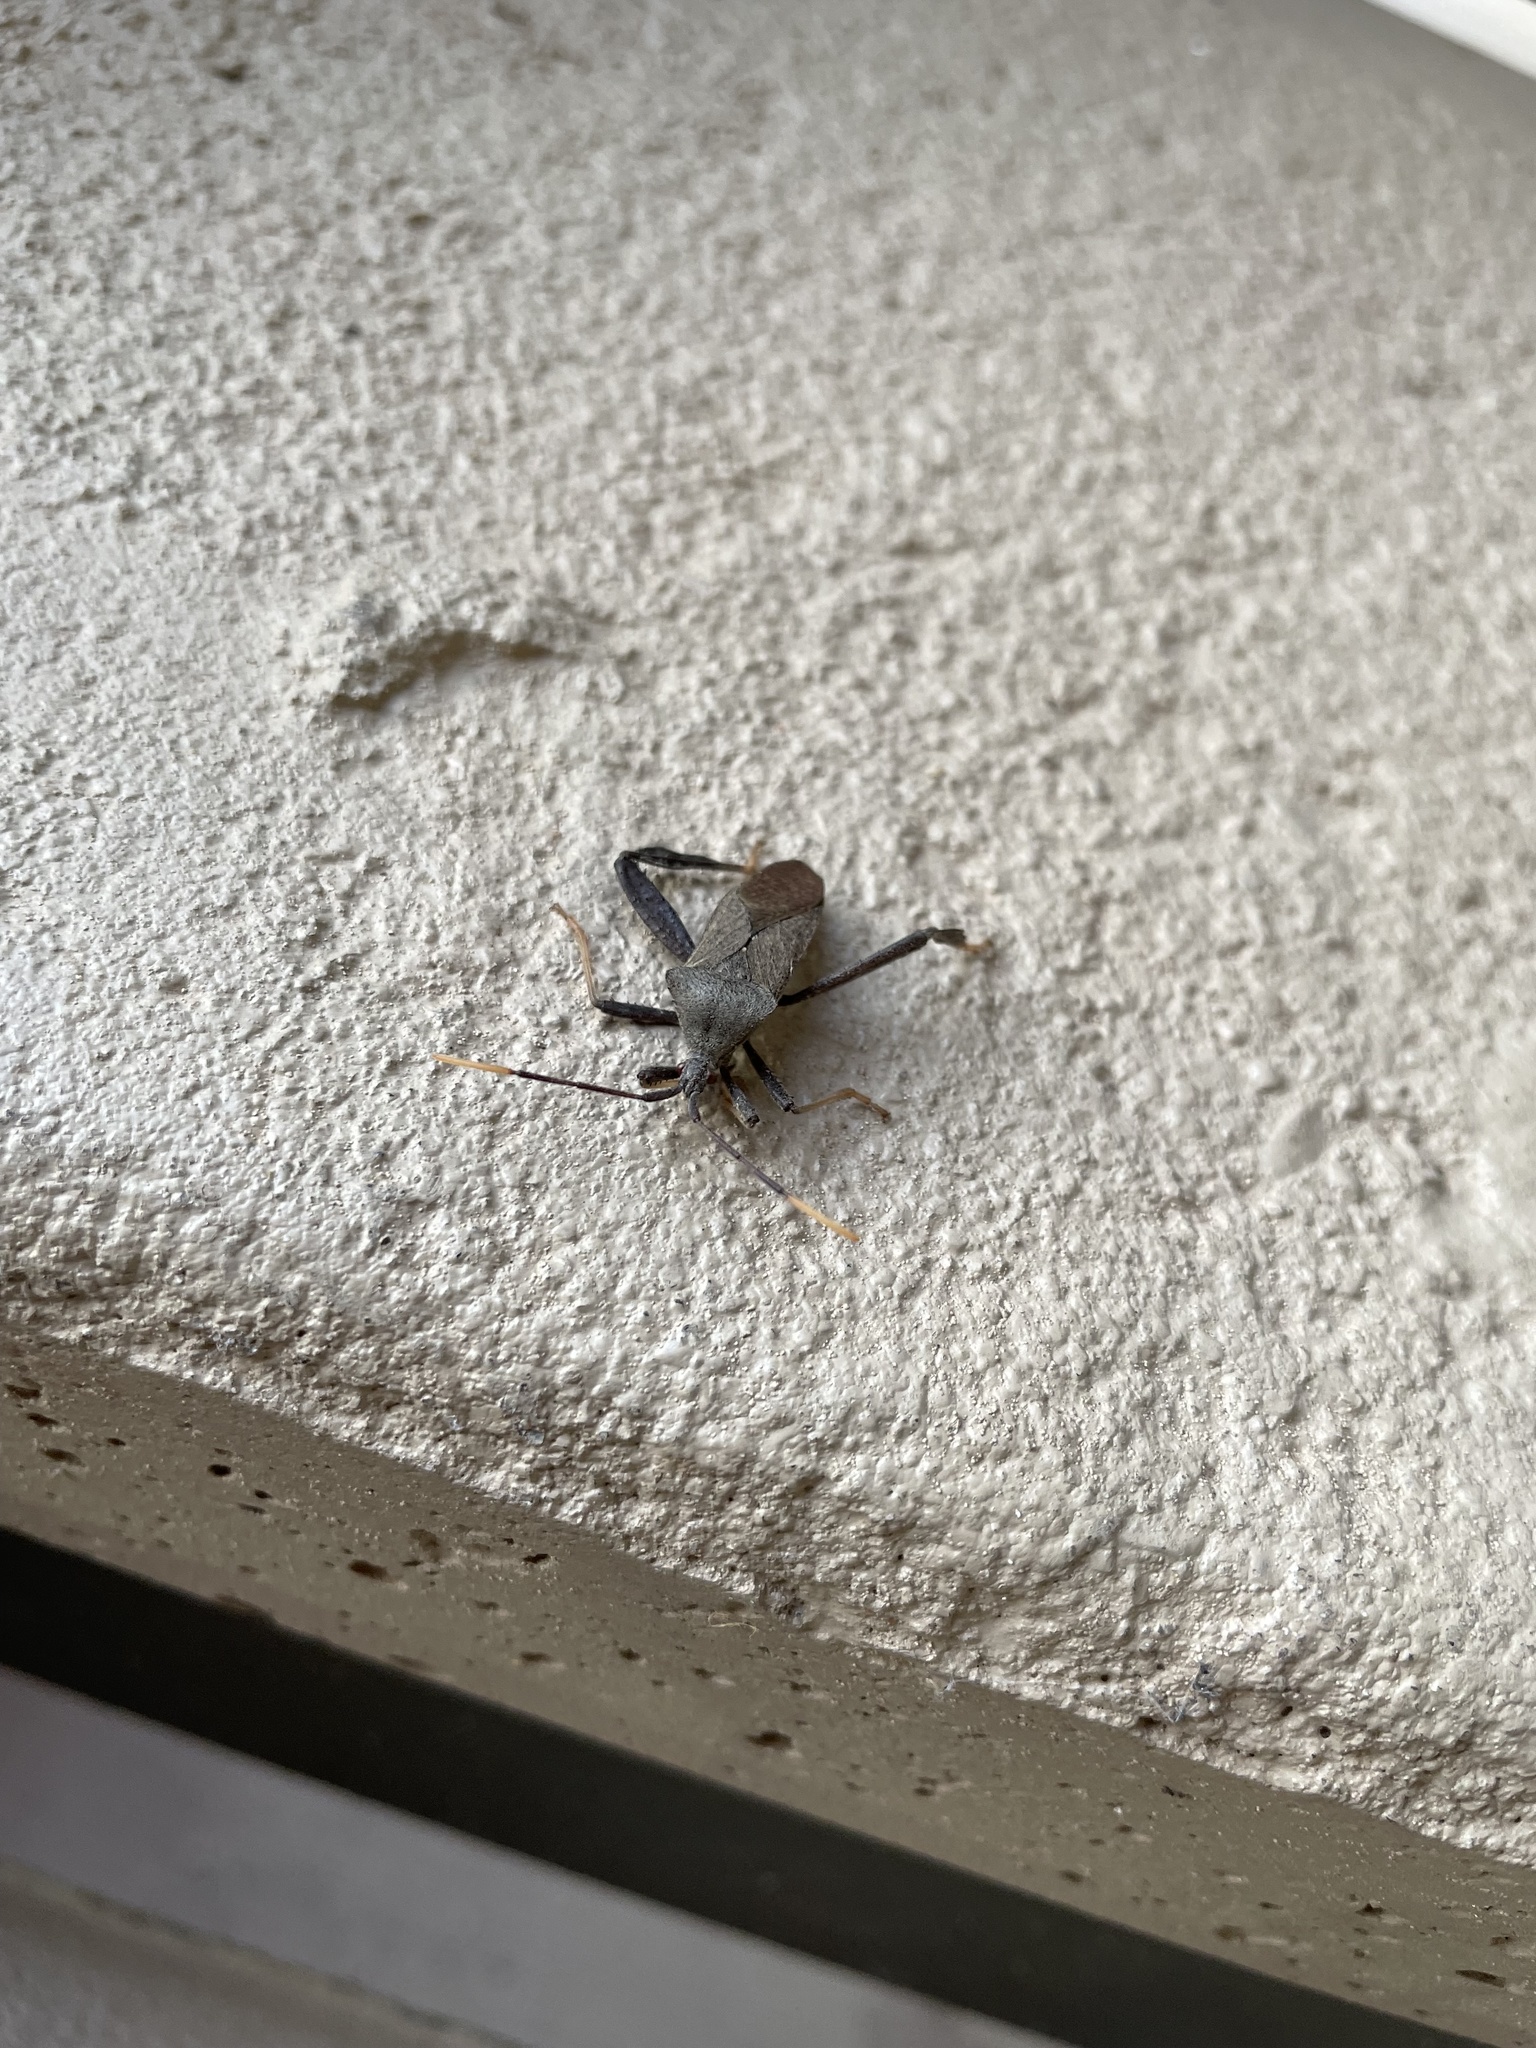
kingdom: Animalia
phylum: Arthropoda
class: Insecta
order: Hemiptera
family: Coreidae
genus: Acanthocephala
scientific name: Acanthocephala terminalis
